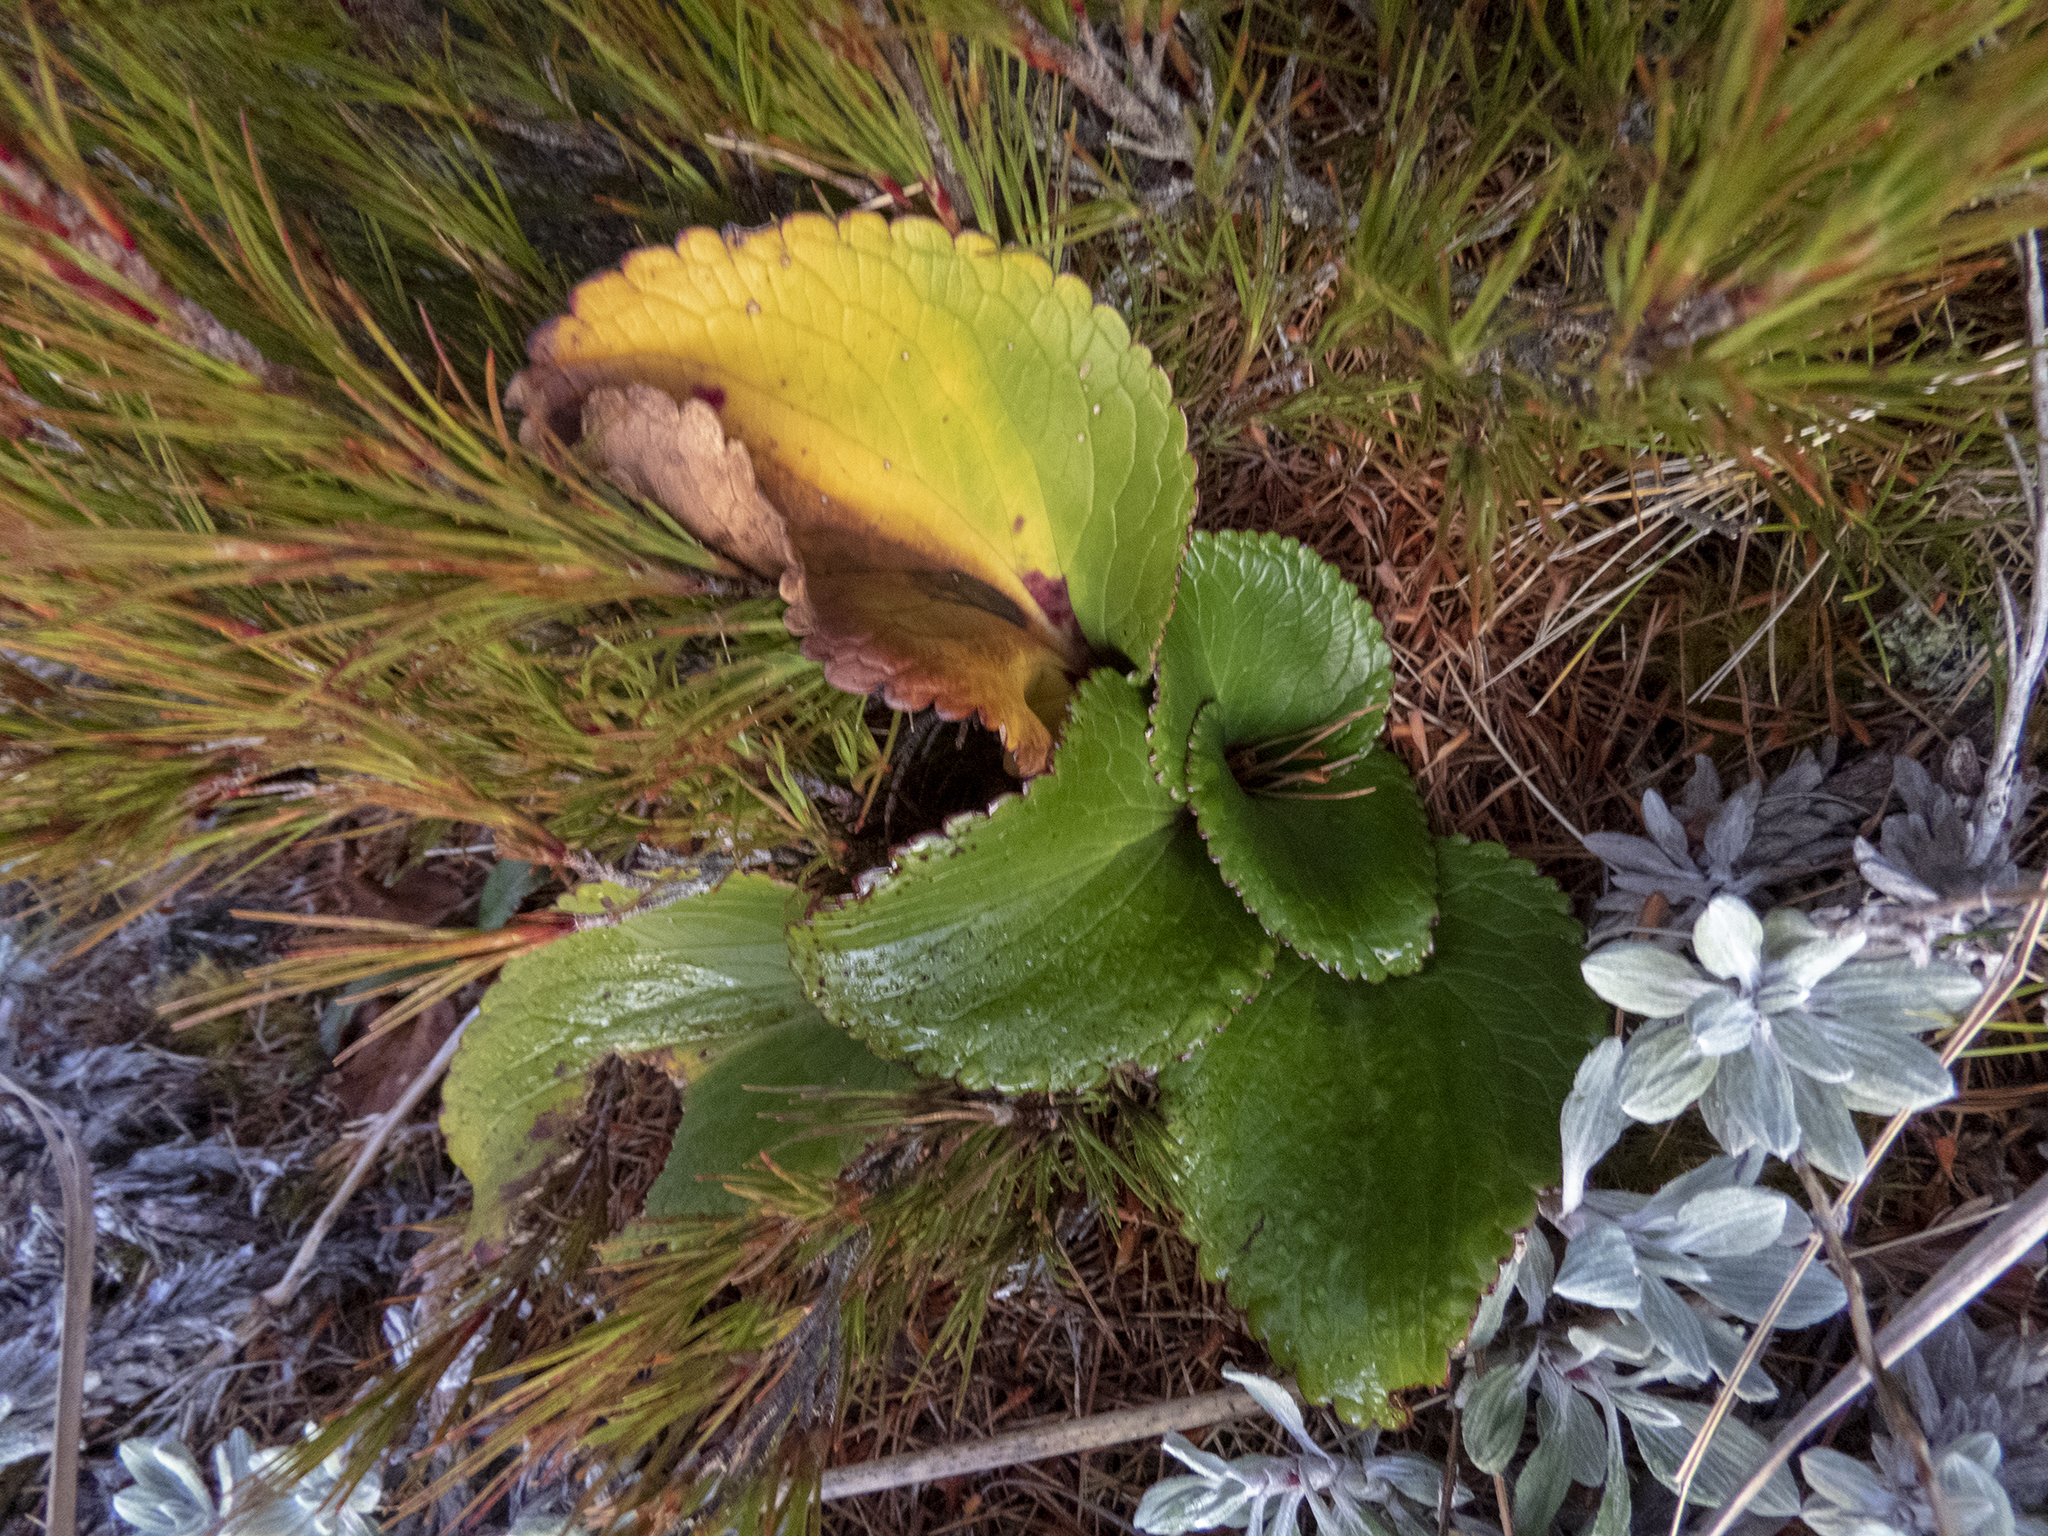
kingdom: Plantae
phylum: Tracheophyta
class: Magnoliopsida
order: Lamiales
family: Plantaginaceae
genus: Ourisia
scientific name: Ourisia calycina
